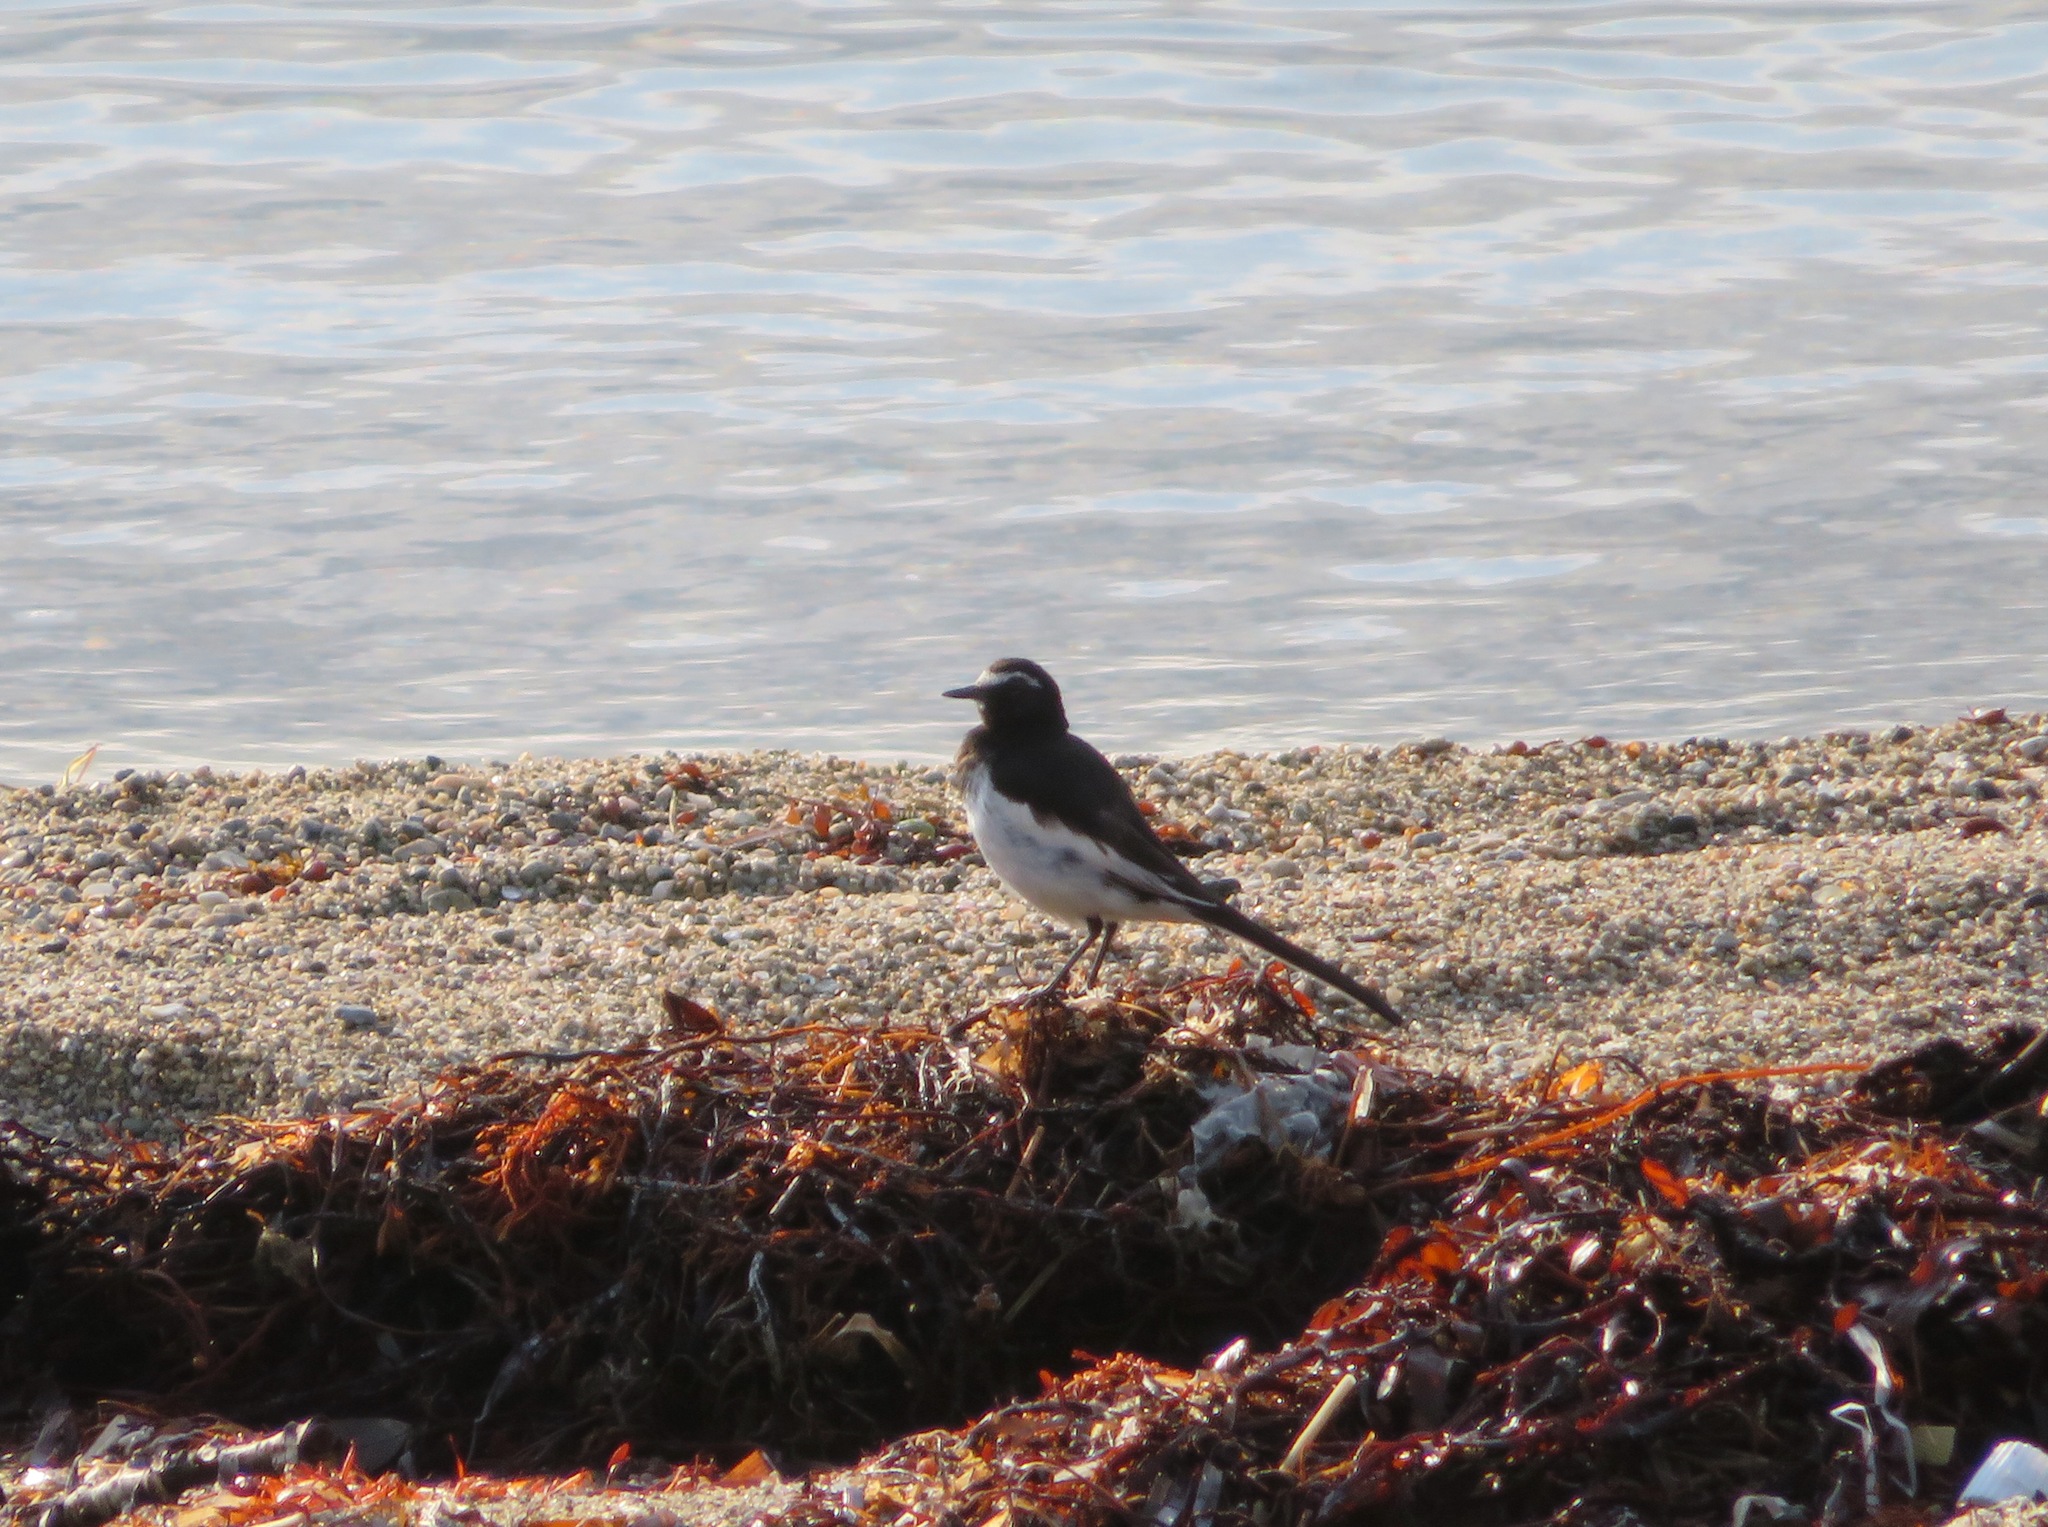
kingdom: Animalia
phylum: Chordata
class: Aves
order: Passeriformes
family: Motacillidae
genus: Motacilla
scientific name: Motacilla grandis
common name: Japanese wagtail
